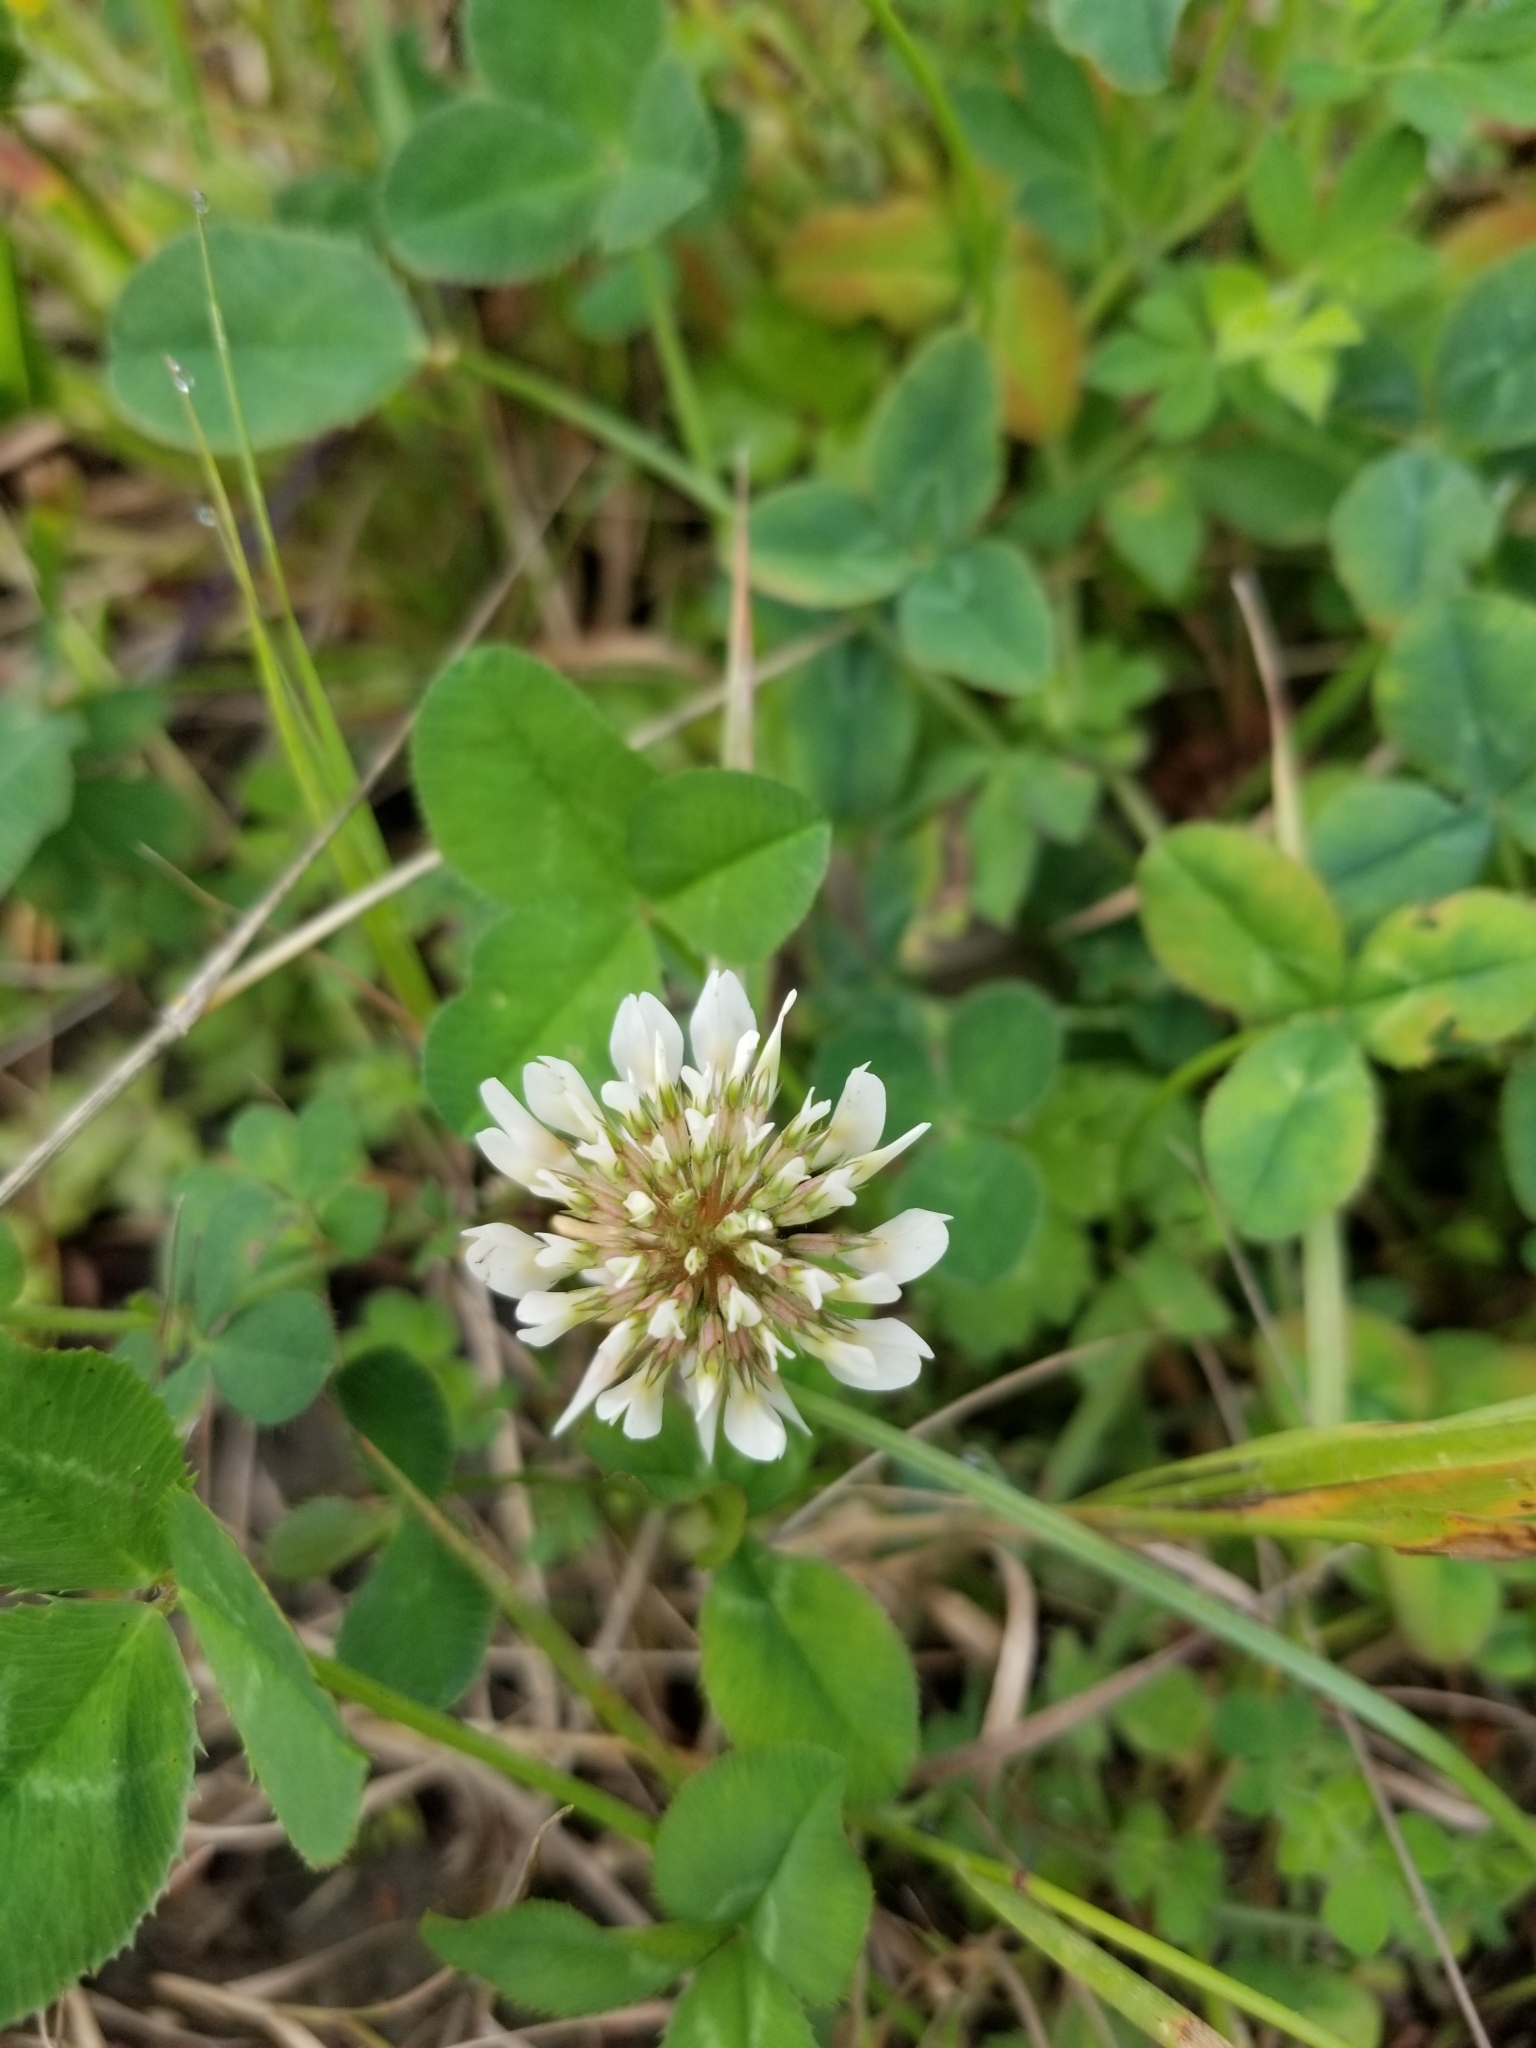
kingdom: Plantae
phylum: Tracheophyta
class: Magnoliopsida
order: Fabales
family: Fabaceae
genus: Trifolium
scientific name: Trifolium repens
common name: White clover
